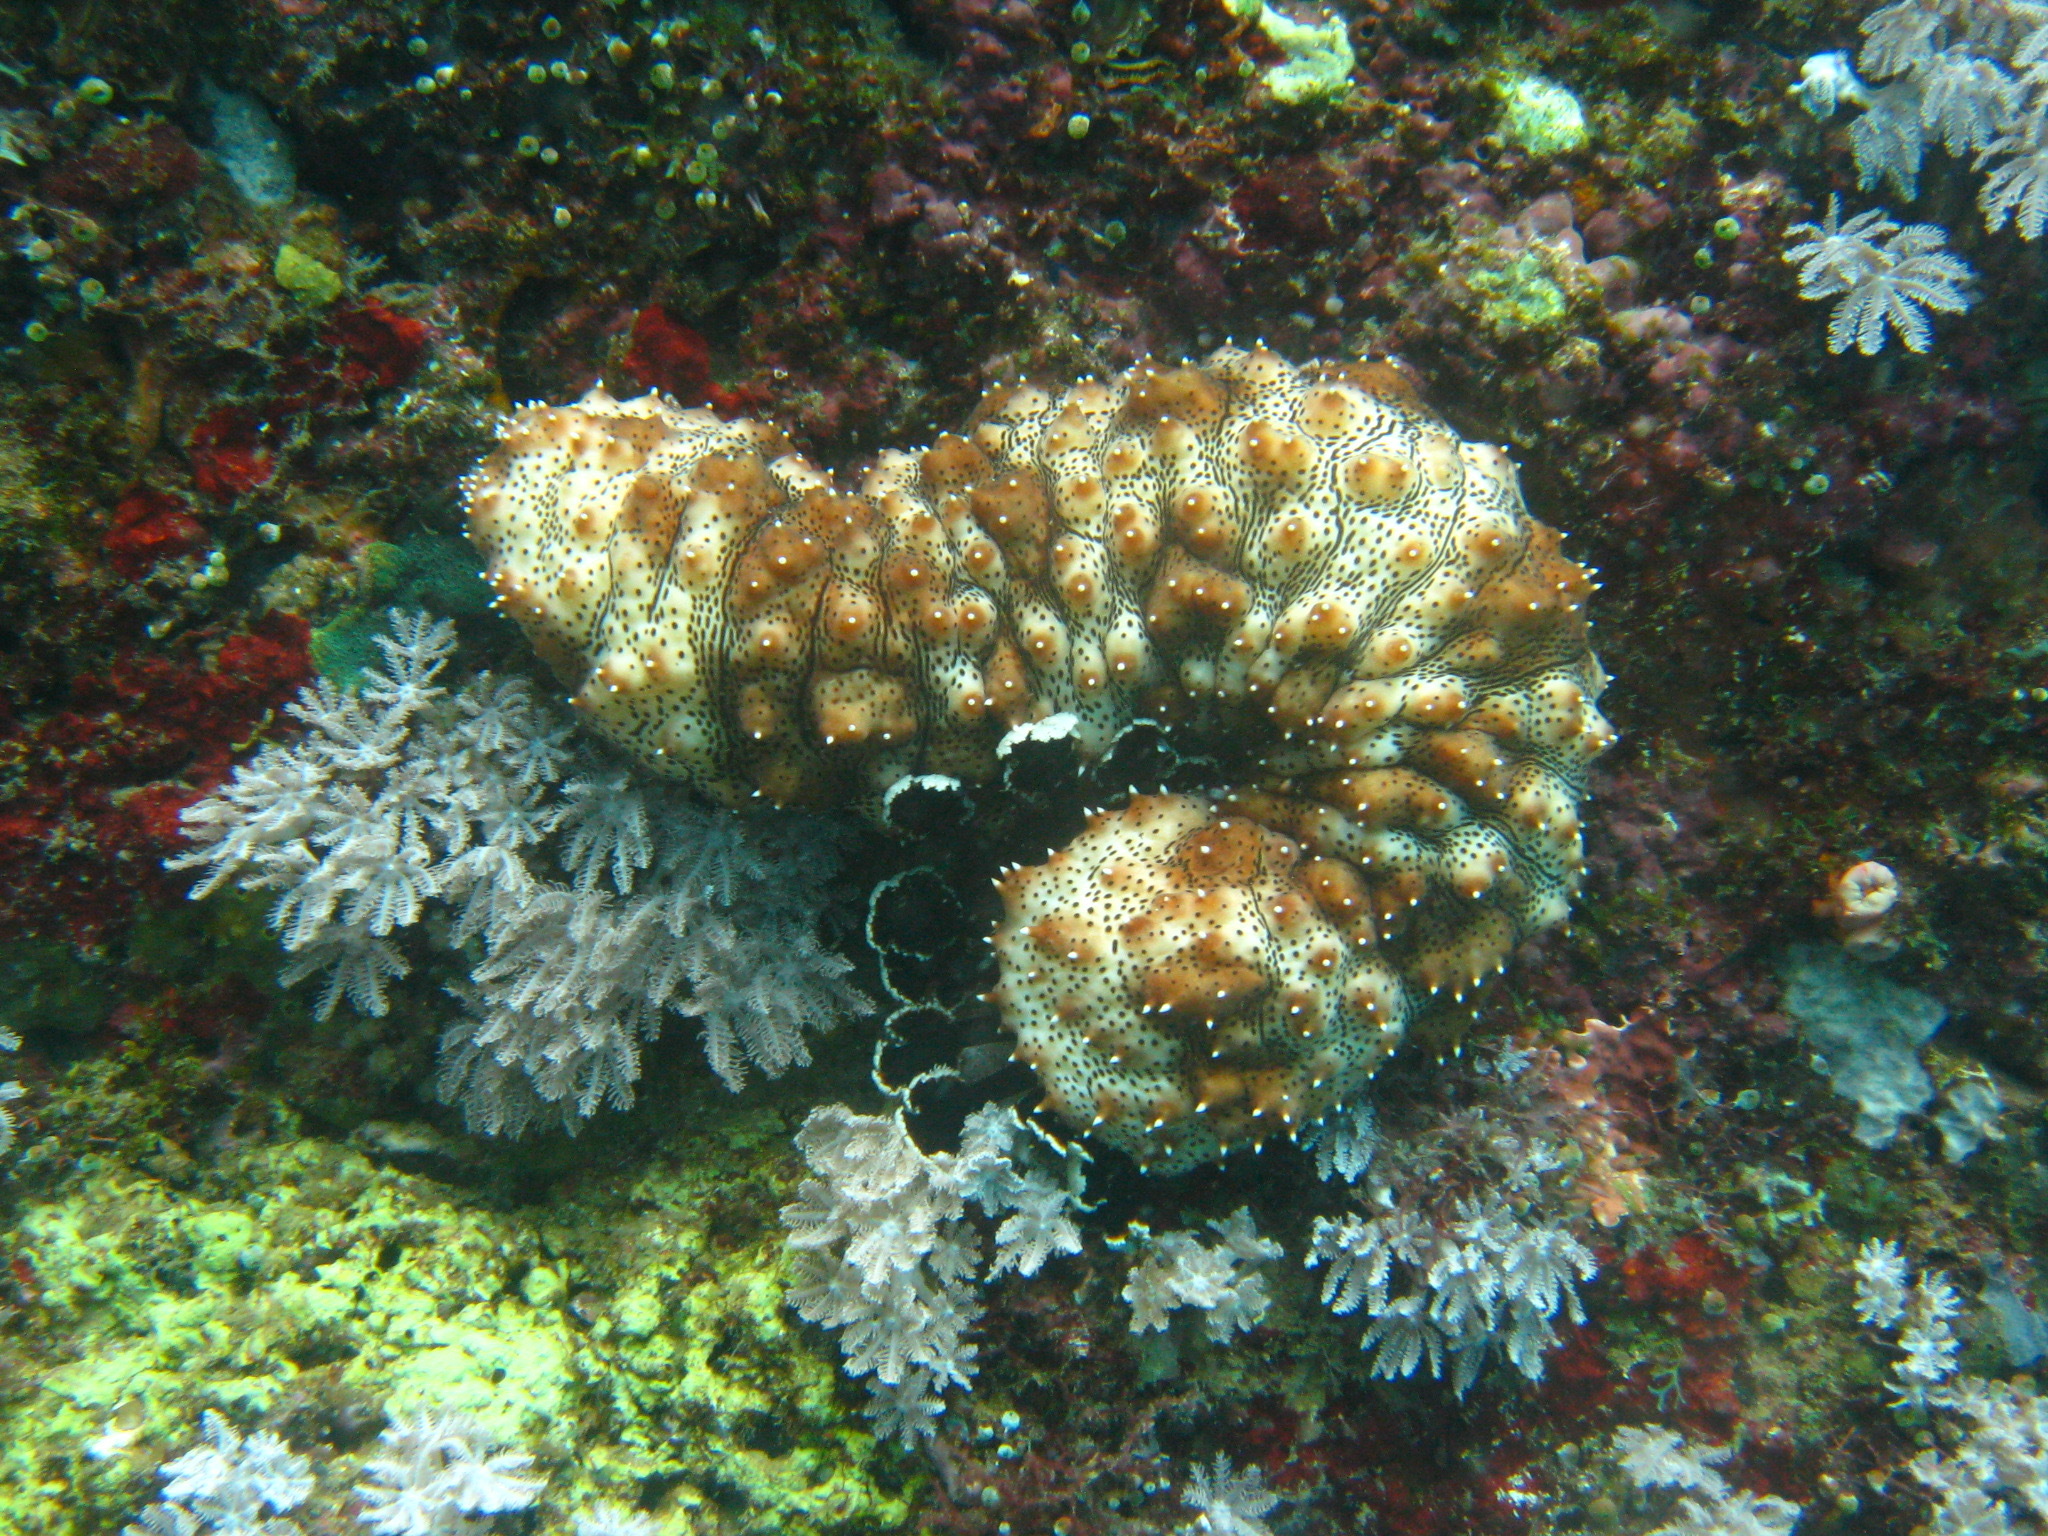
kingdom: Animalia
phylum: Echinodermata
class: Holothuroidea
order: Holothuriida
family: Holothuriidae
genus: Pearsonothuria
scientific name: Pearsonothuria graeffei
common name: Blackspotted sea cucumber
